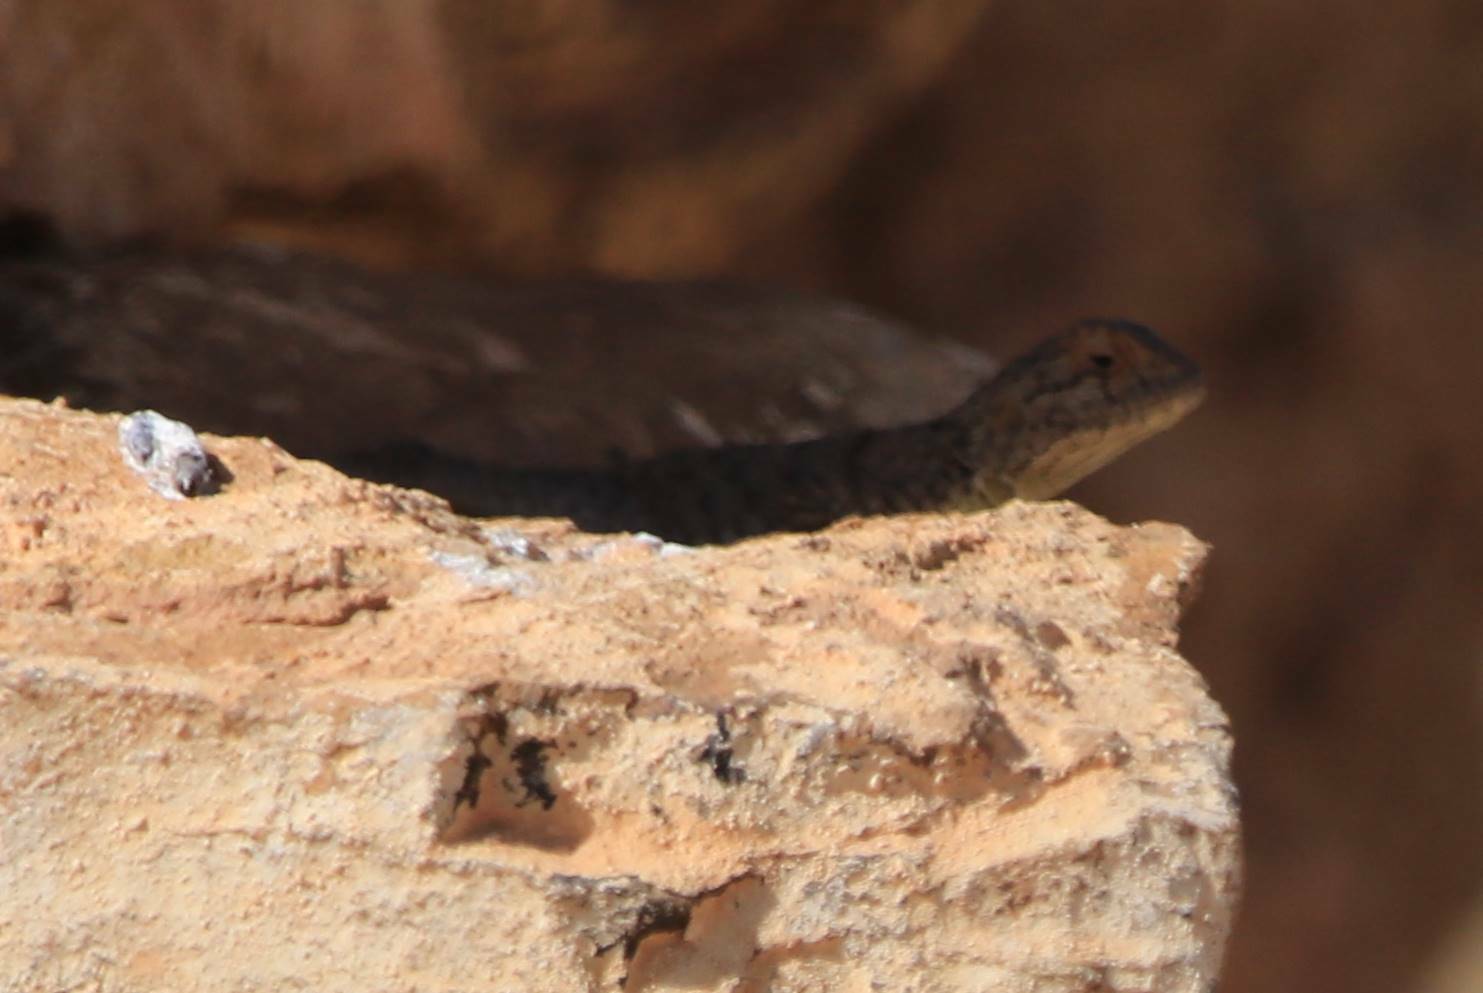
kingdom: Animalia
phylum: Chordata
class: Squamata
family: Agamidae
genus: Agama
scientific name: Agama impalearis
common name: Bibron's agama
